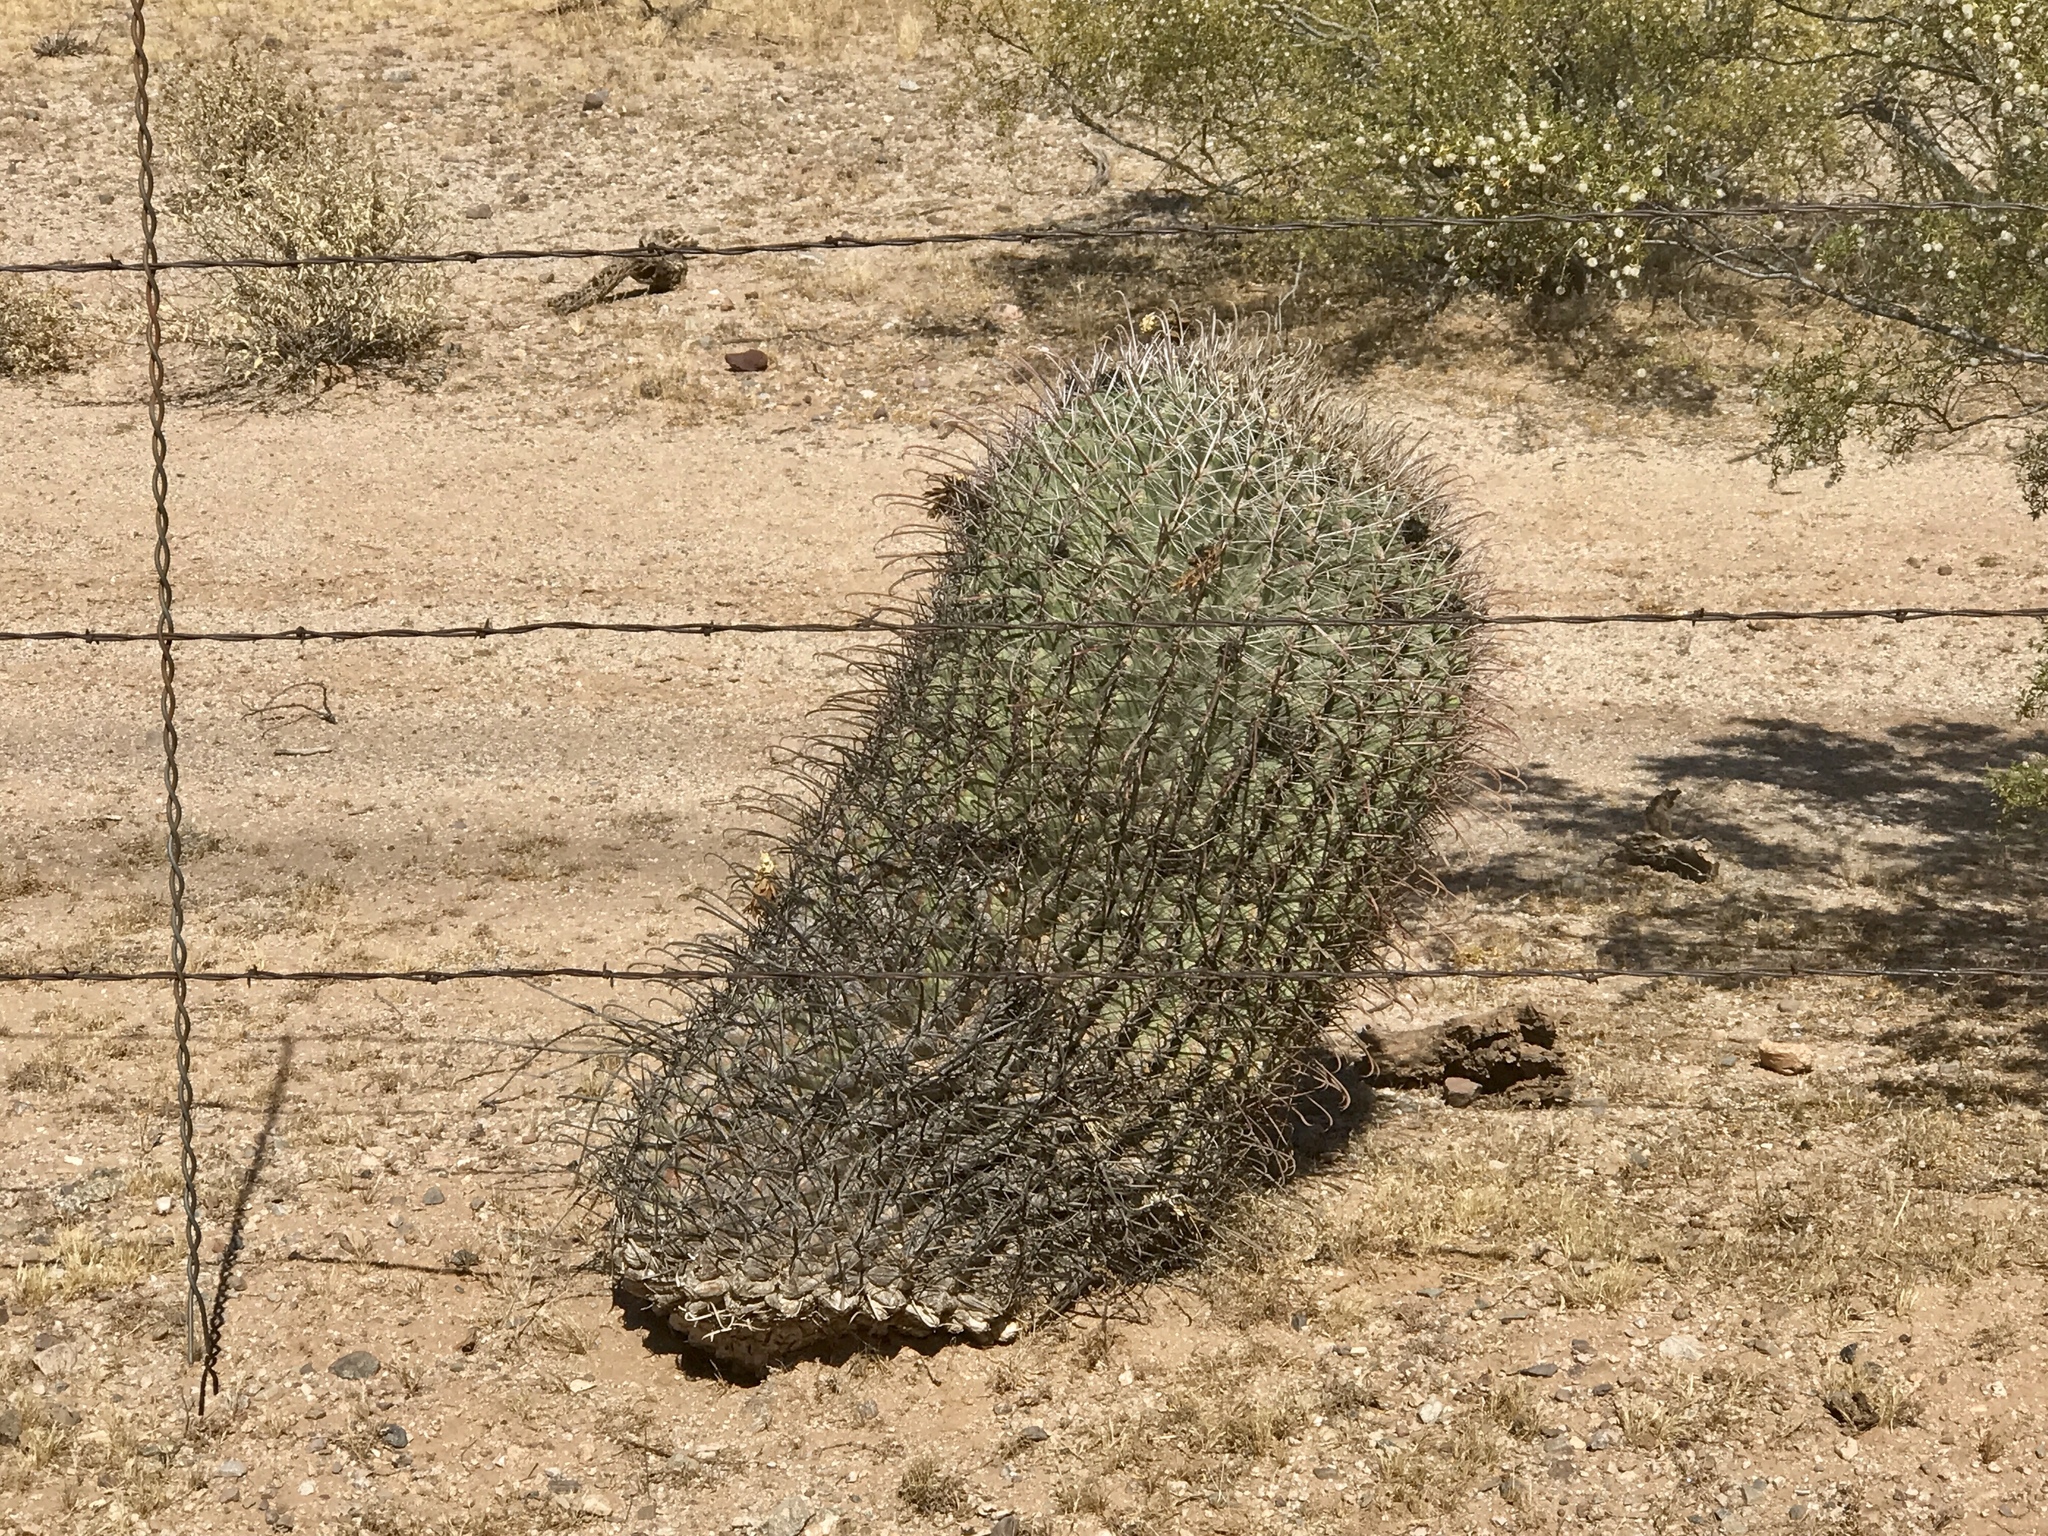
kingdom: Plantae
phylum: Tracheophyta
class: Magnoliopsida
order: Caryophyllales
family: Cactaceae
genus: Ferocactus
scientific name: Ferocactus wislizeni
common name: Candy barrel cactus
